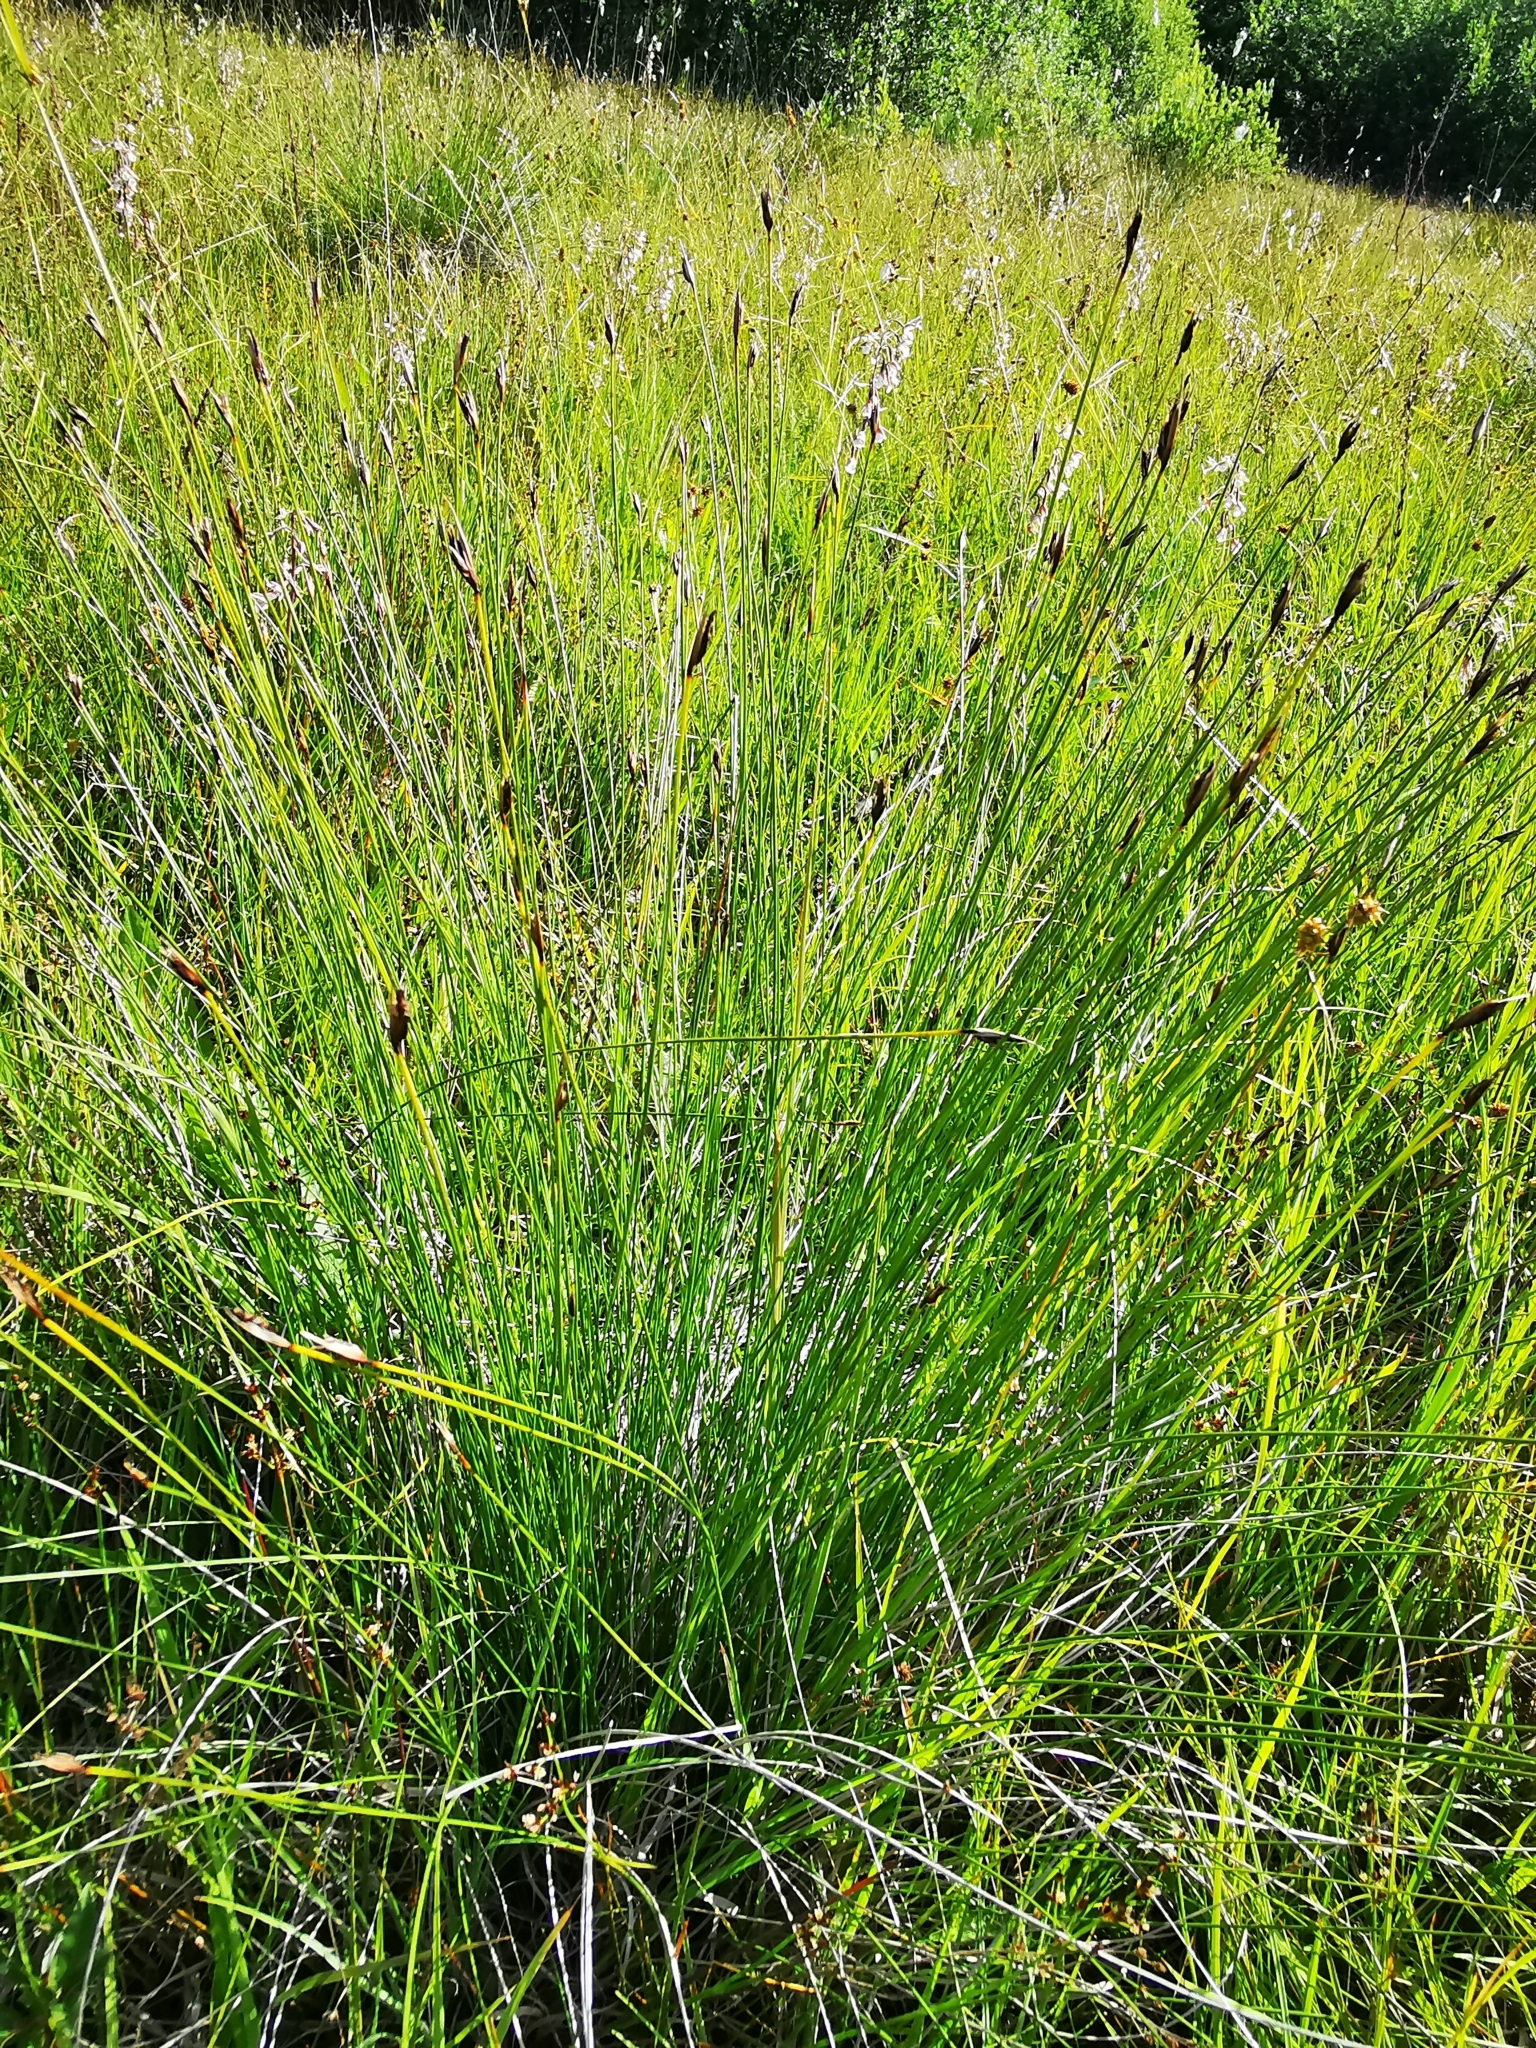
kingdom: Plantae
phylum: Tracheophyta
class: Liliopsida
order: Poales
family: Cyperaceae
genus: Schoenus
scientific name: Schoenus ferrugineus
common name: Brown bog-rush
